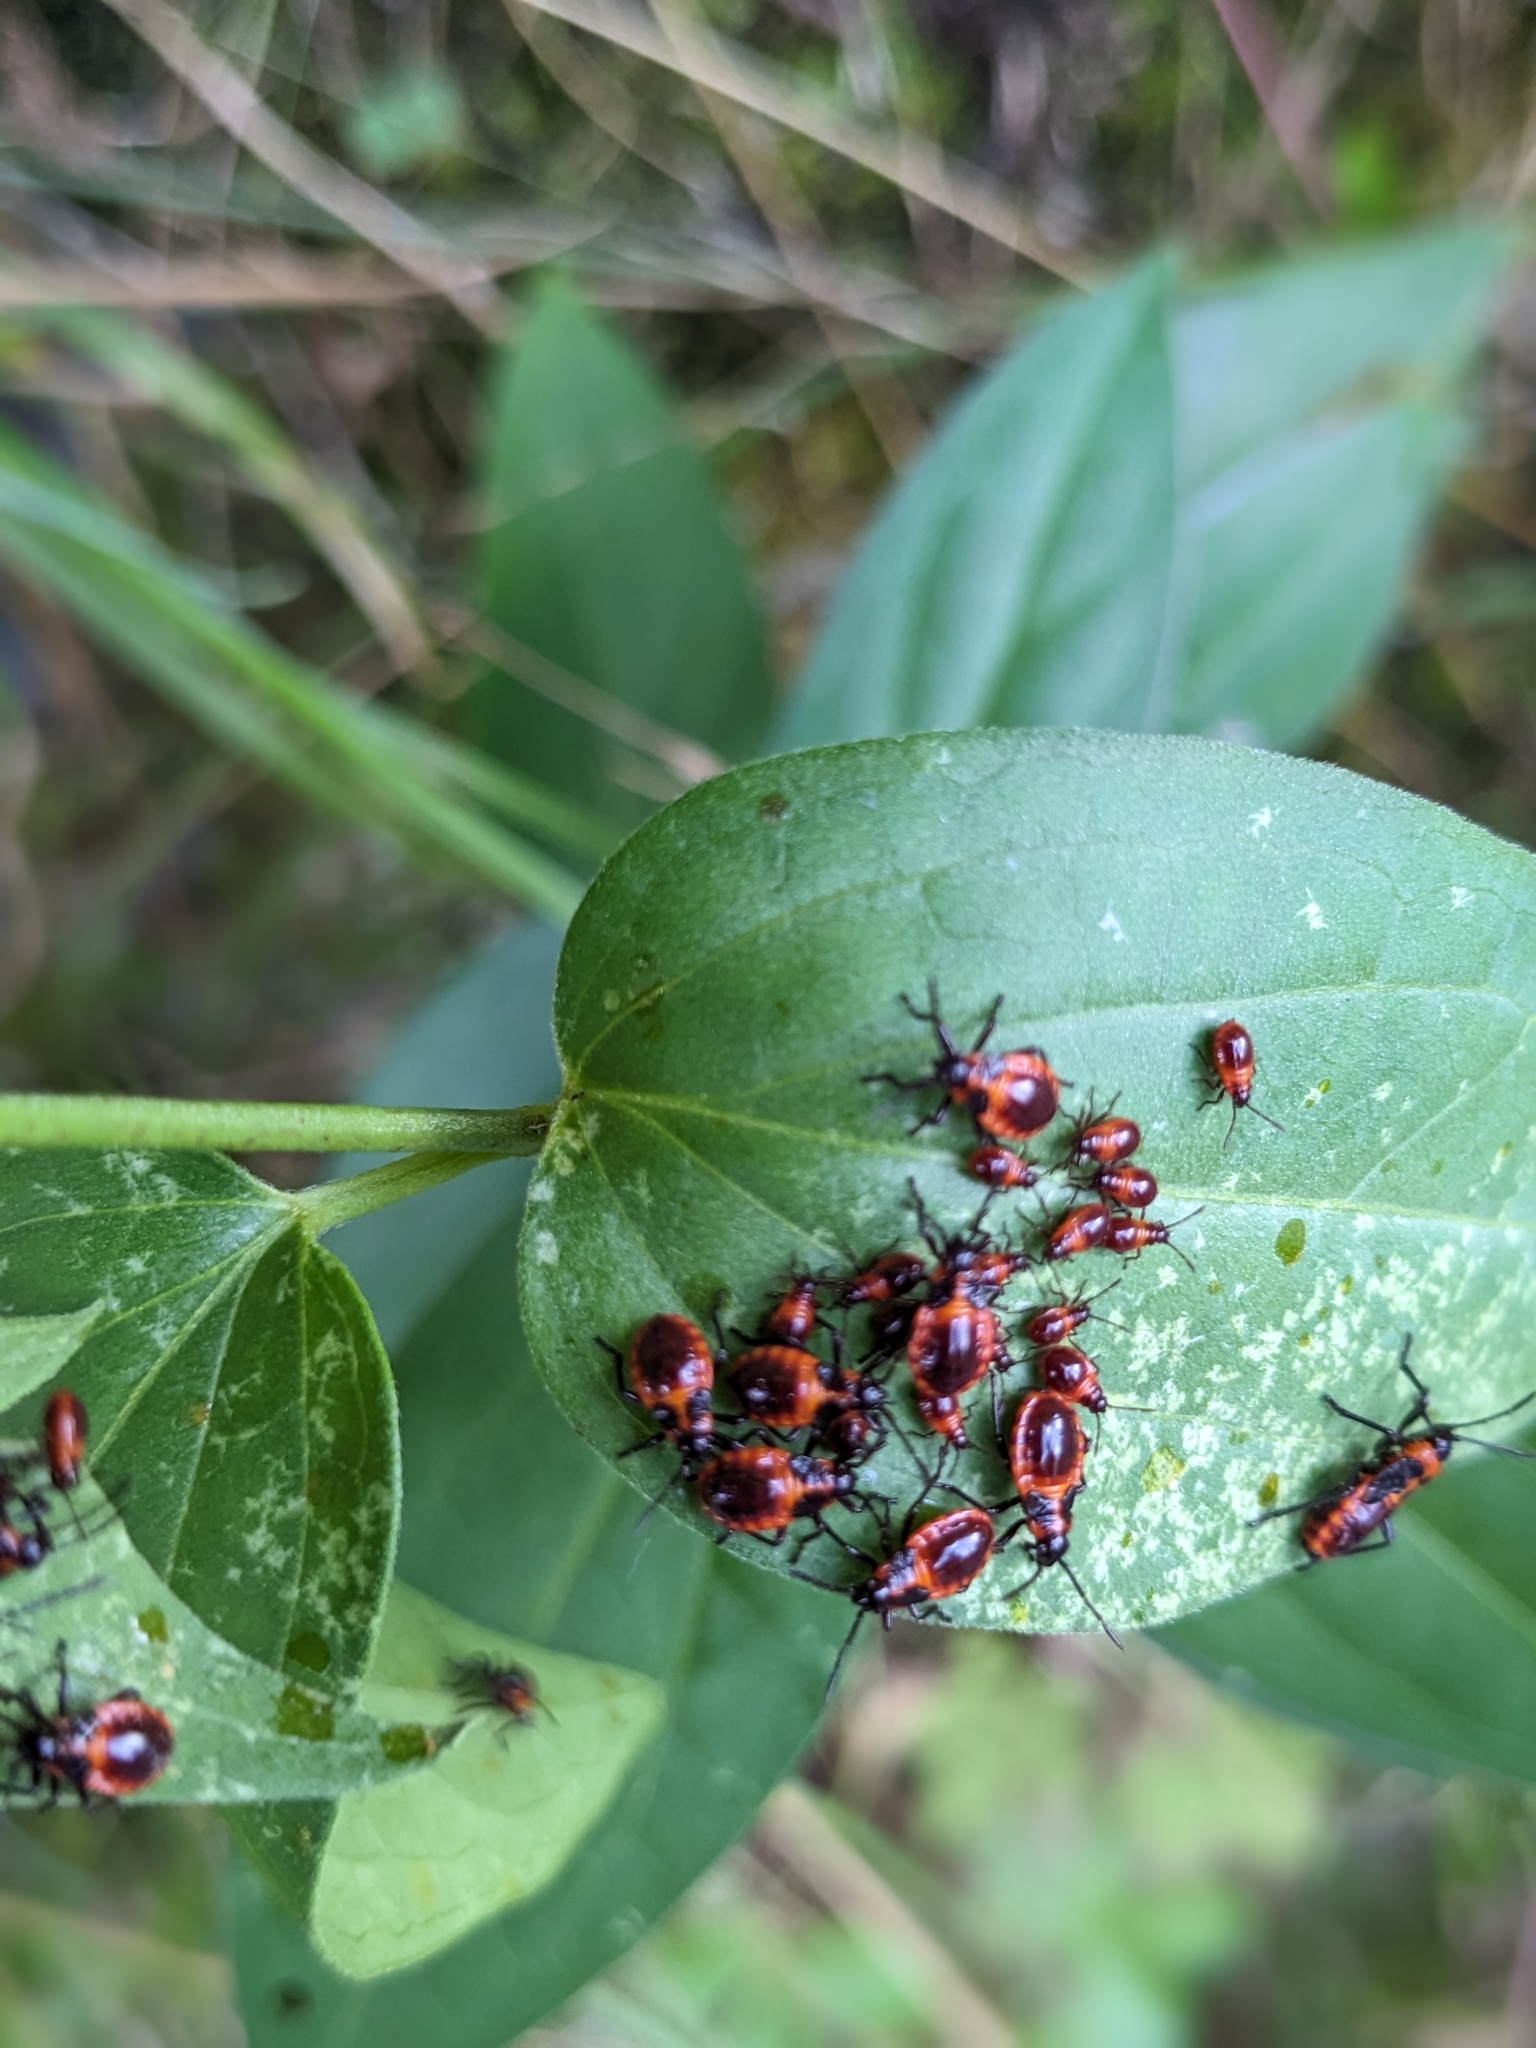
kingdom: Animalia
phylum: Arthropoda
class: Insecta
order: Hemiptera
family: Lygaeidae
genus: Tropidothorax
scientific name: Tropidothorax leucopterus
